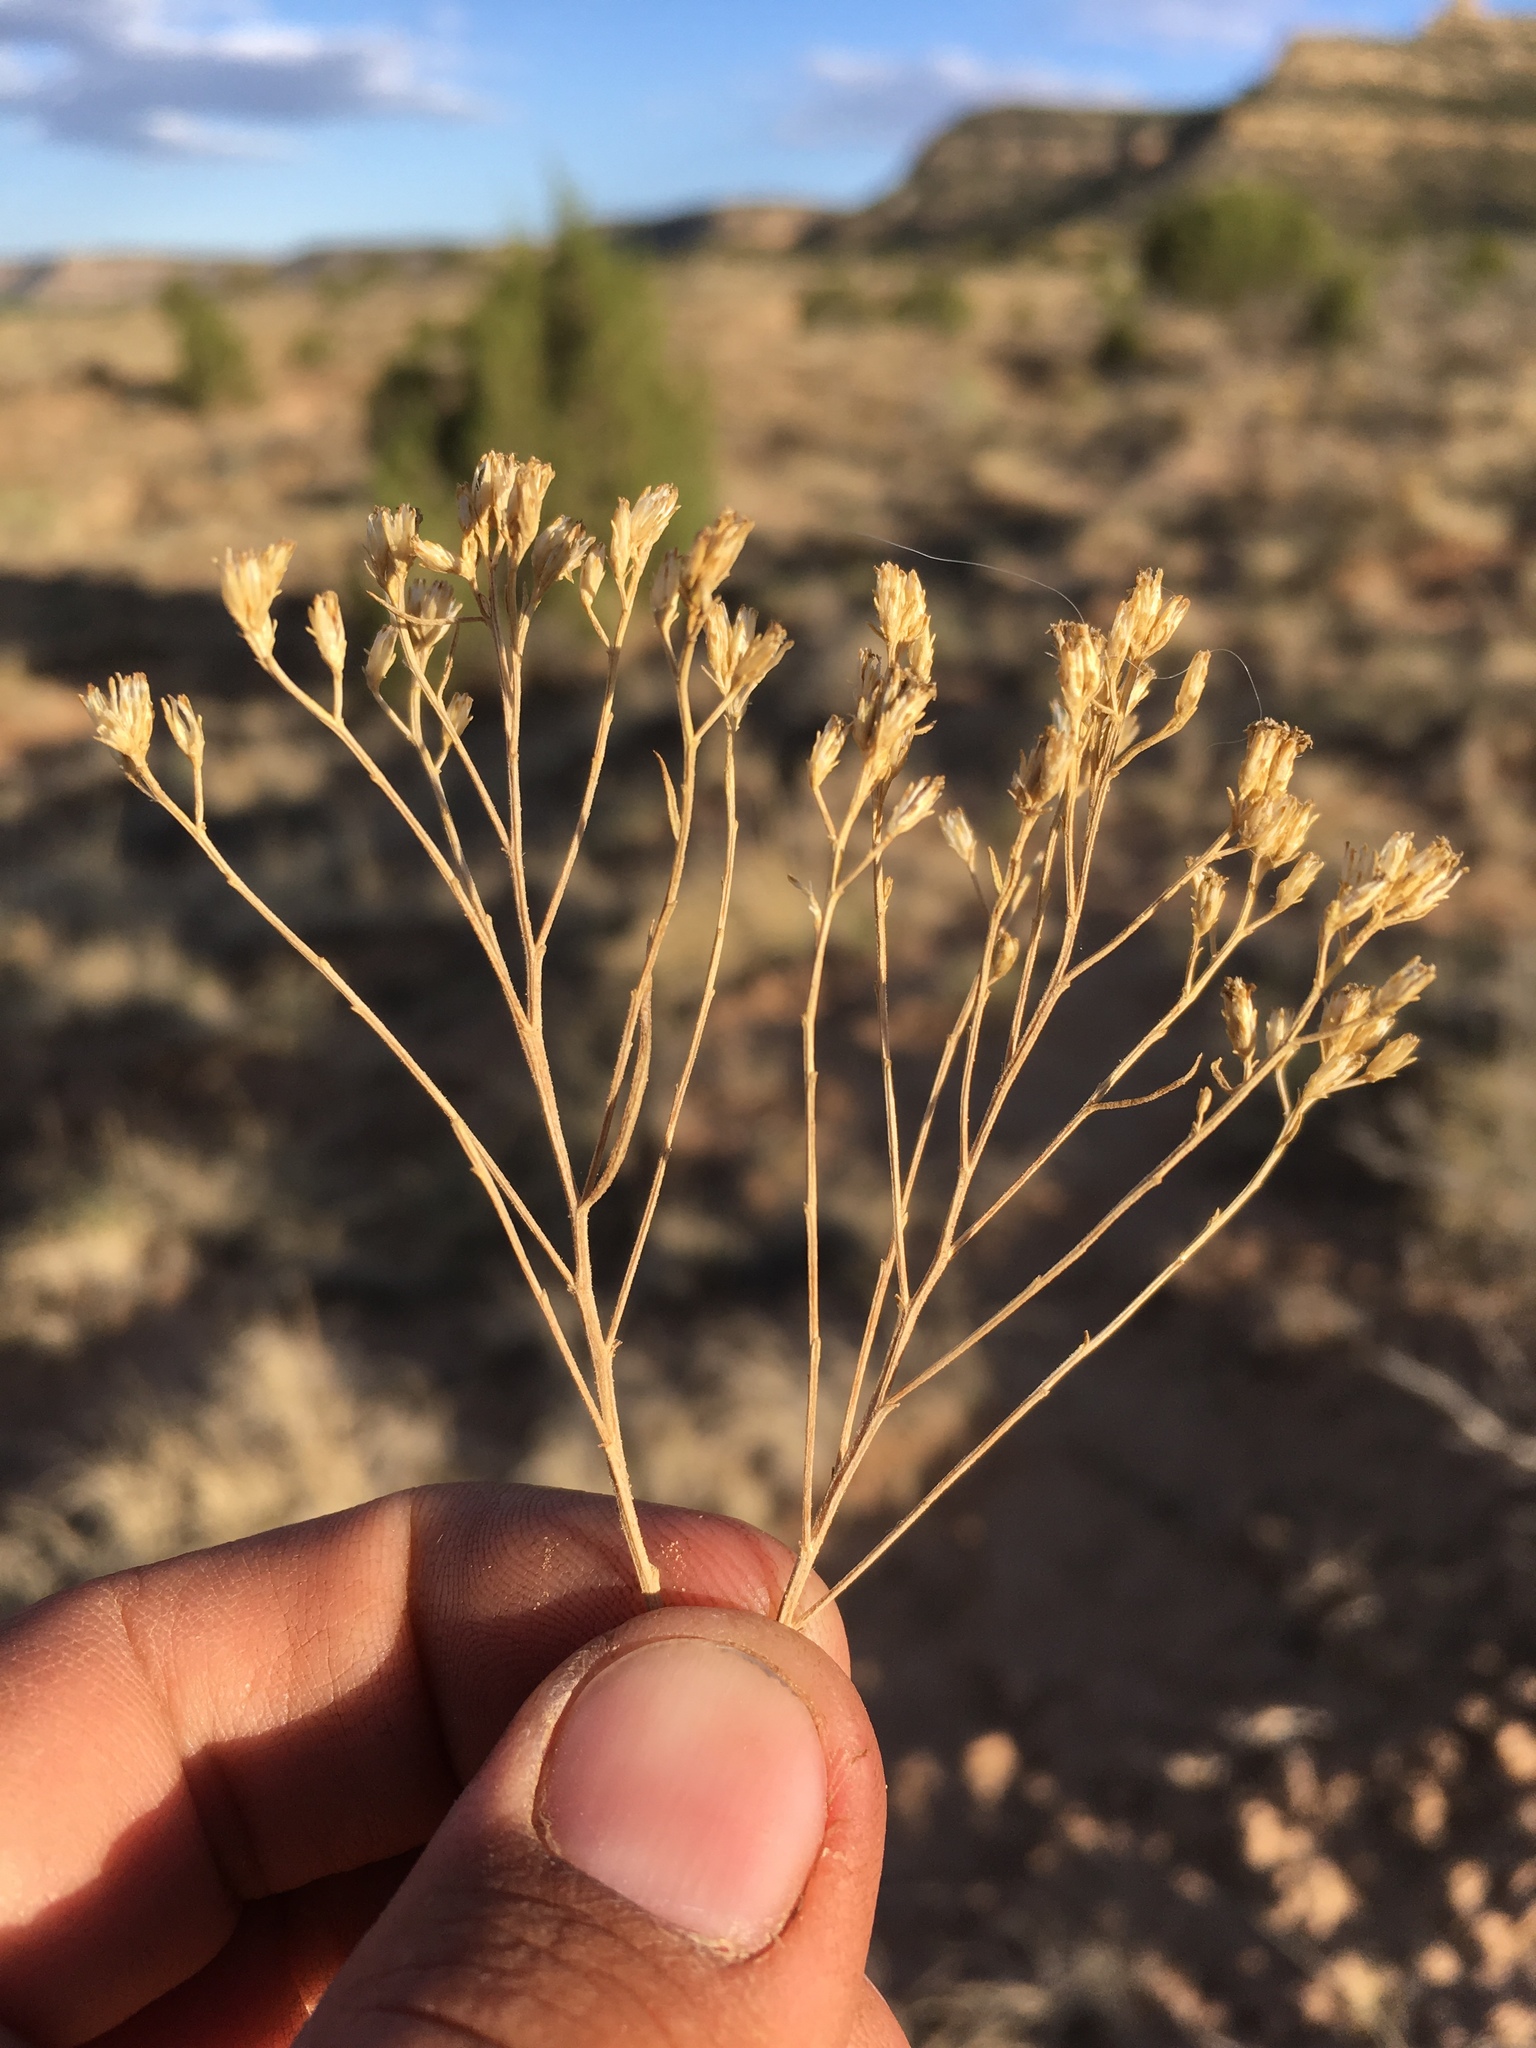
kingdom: Plantae
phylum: Tracheophyta
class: Magnoliopsida
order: Asterales
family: Asteraceae
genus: Gutierrezia
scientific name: Gutierrezia sarothrae
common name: Broom snakeweed
